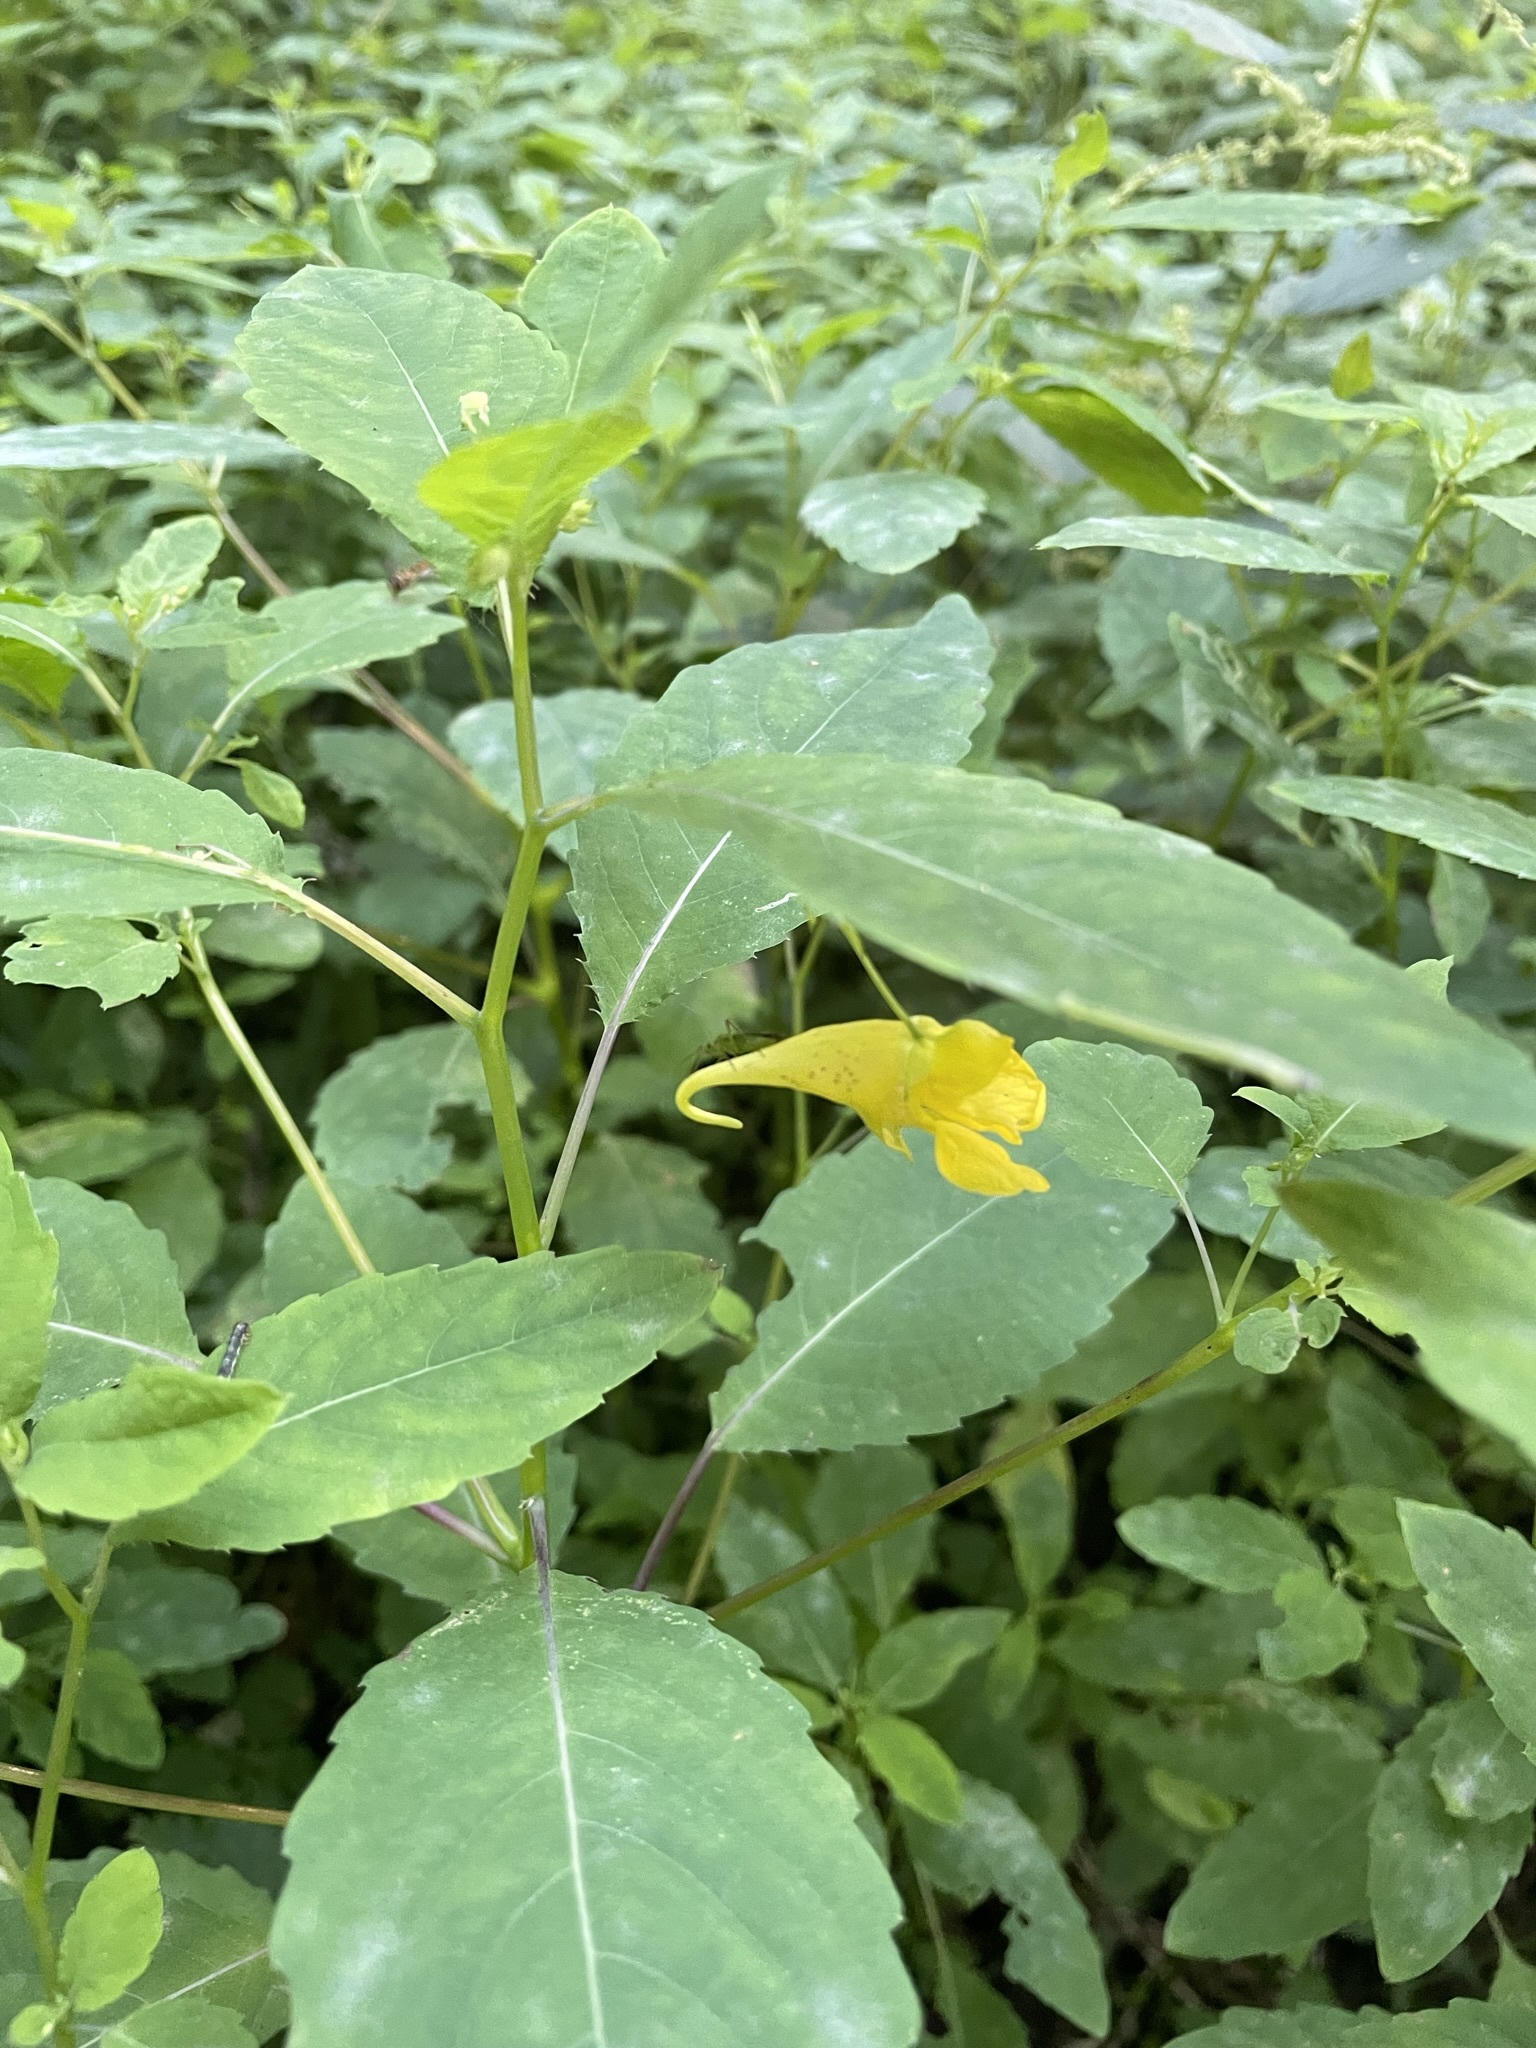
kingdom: Plantae
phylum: Tracheophyta
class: Magnoliopsida
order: Ericales
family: Balsaminaceae
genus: Impatiens
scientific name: Impatiens noli-tangere
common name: Touch-me-not balsam
